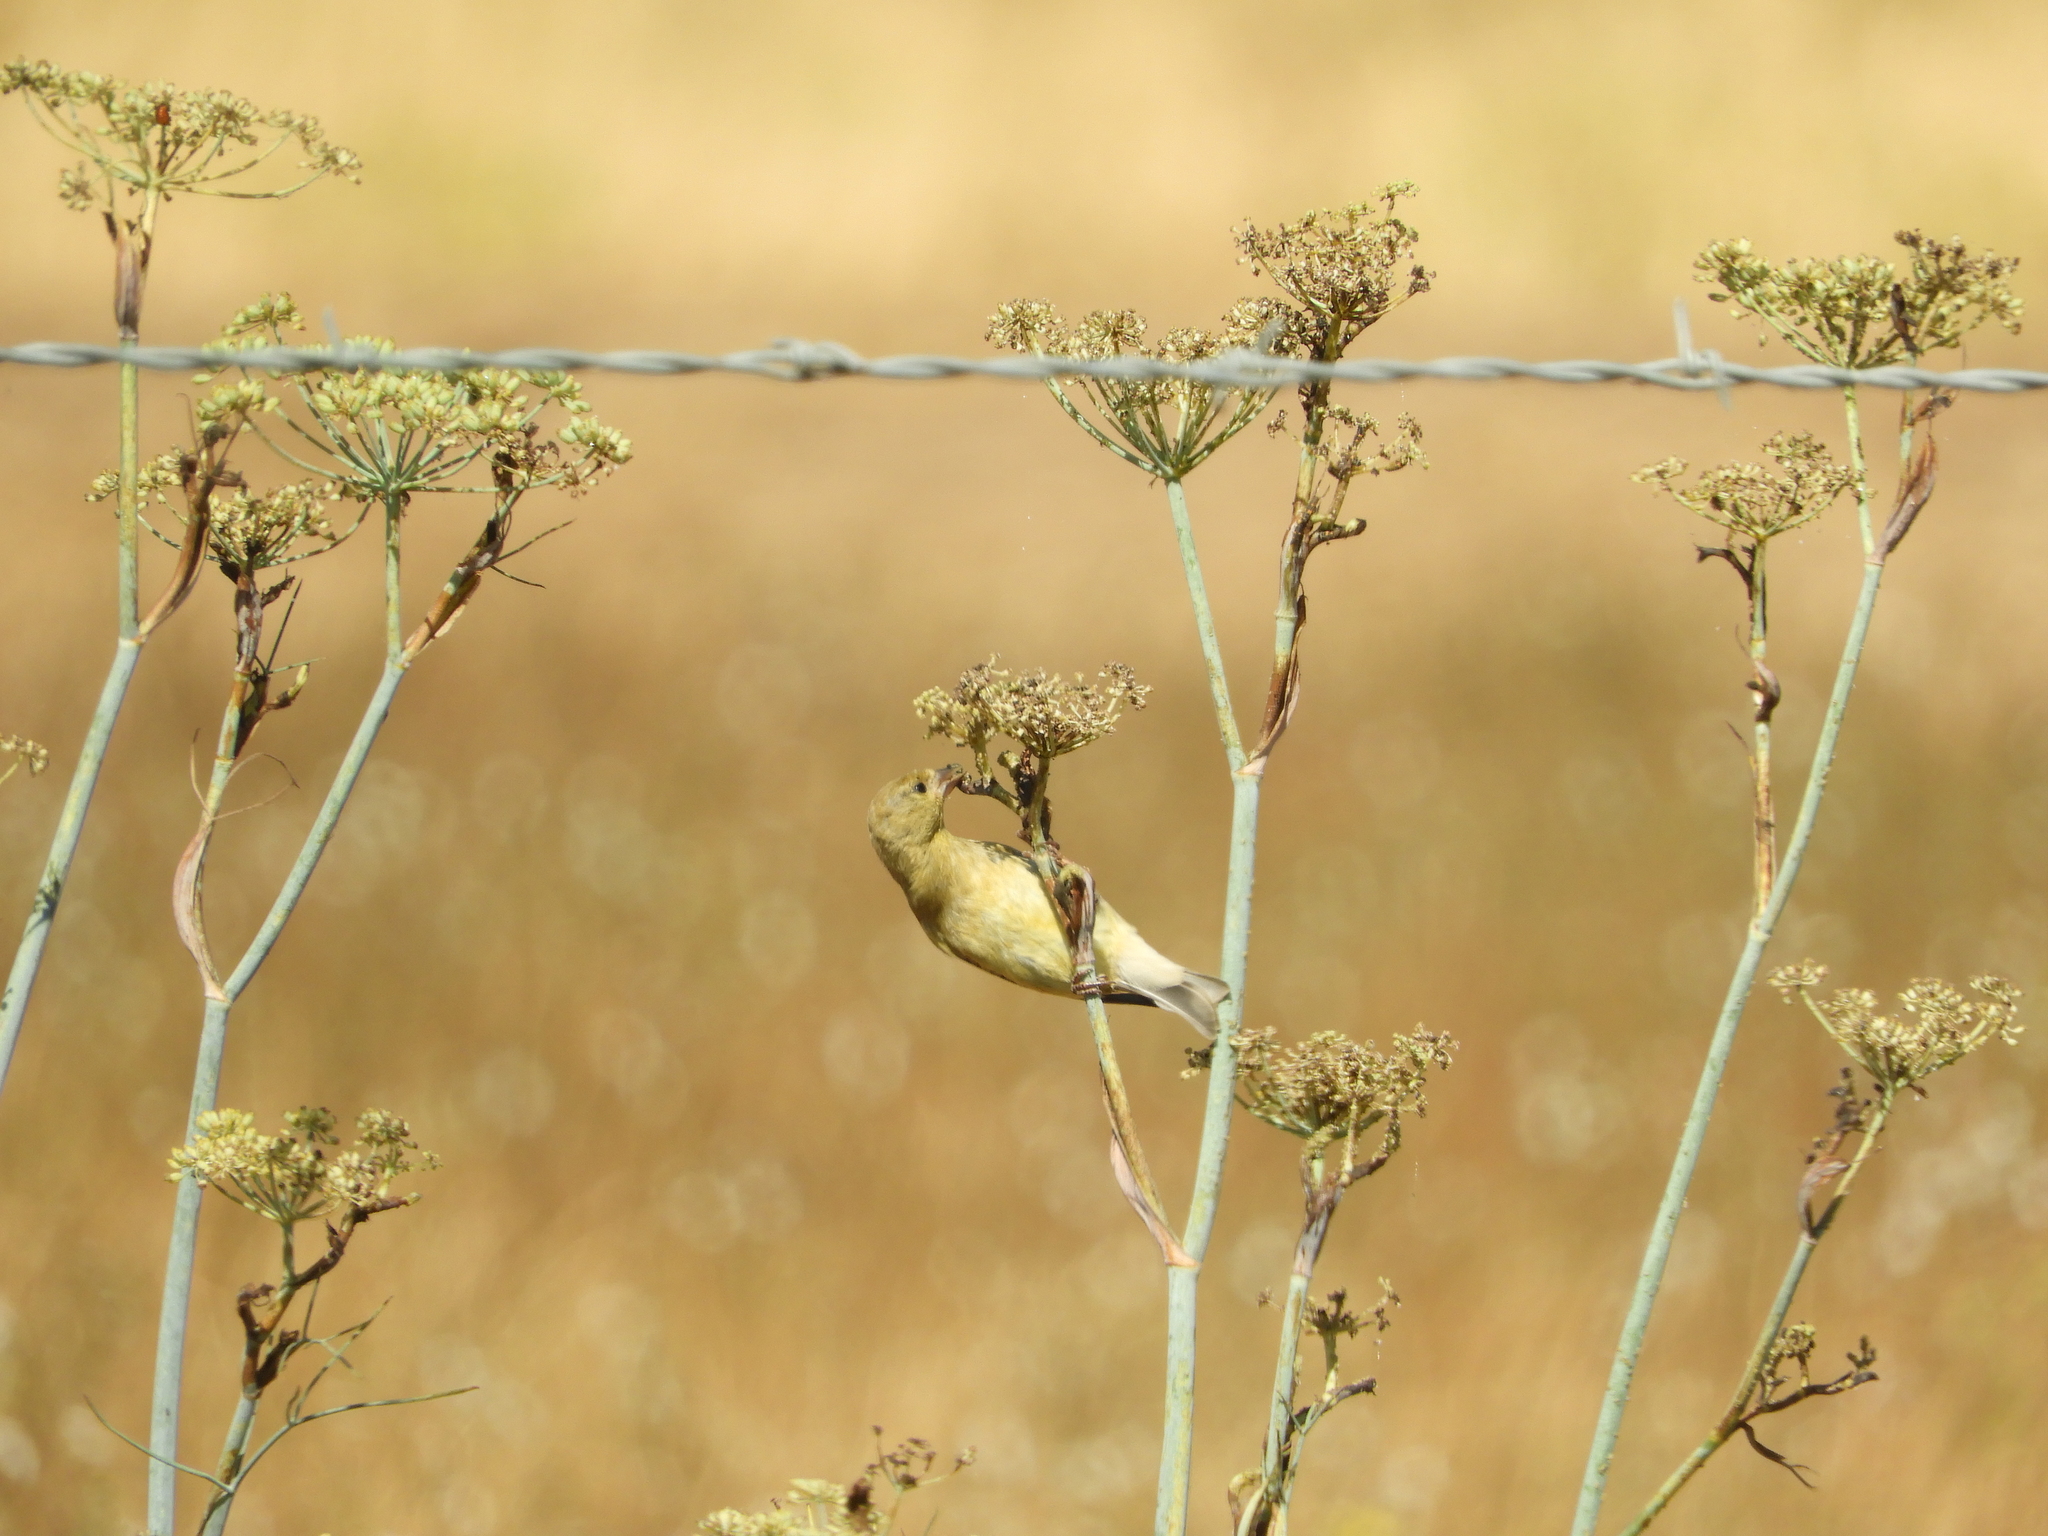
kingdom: Animalia
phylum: Chordata
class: Aves
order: Passeriformes
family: Fringillidae
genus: Spinus
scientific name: Spinus psaltria
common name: Lesser goldfinch
